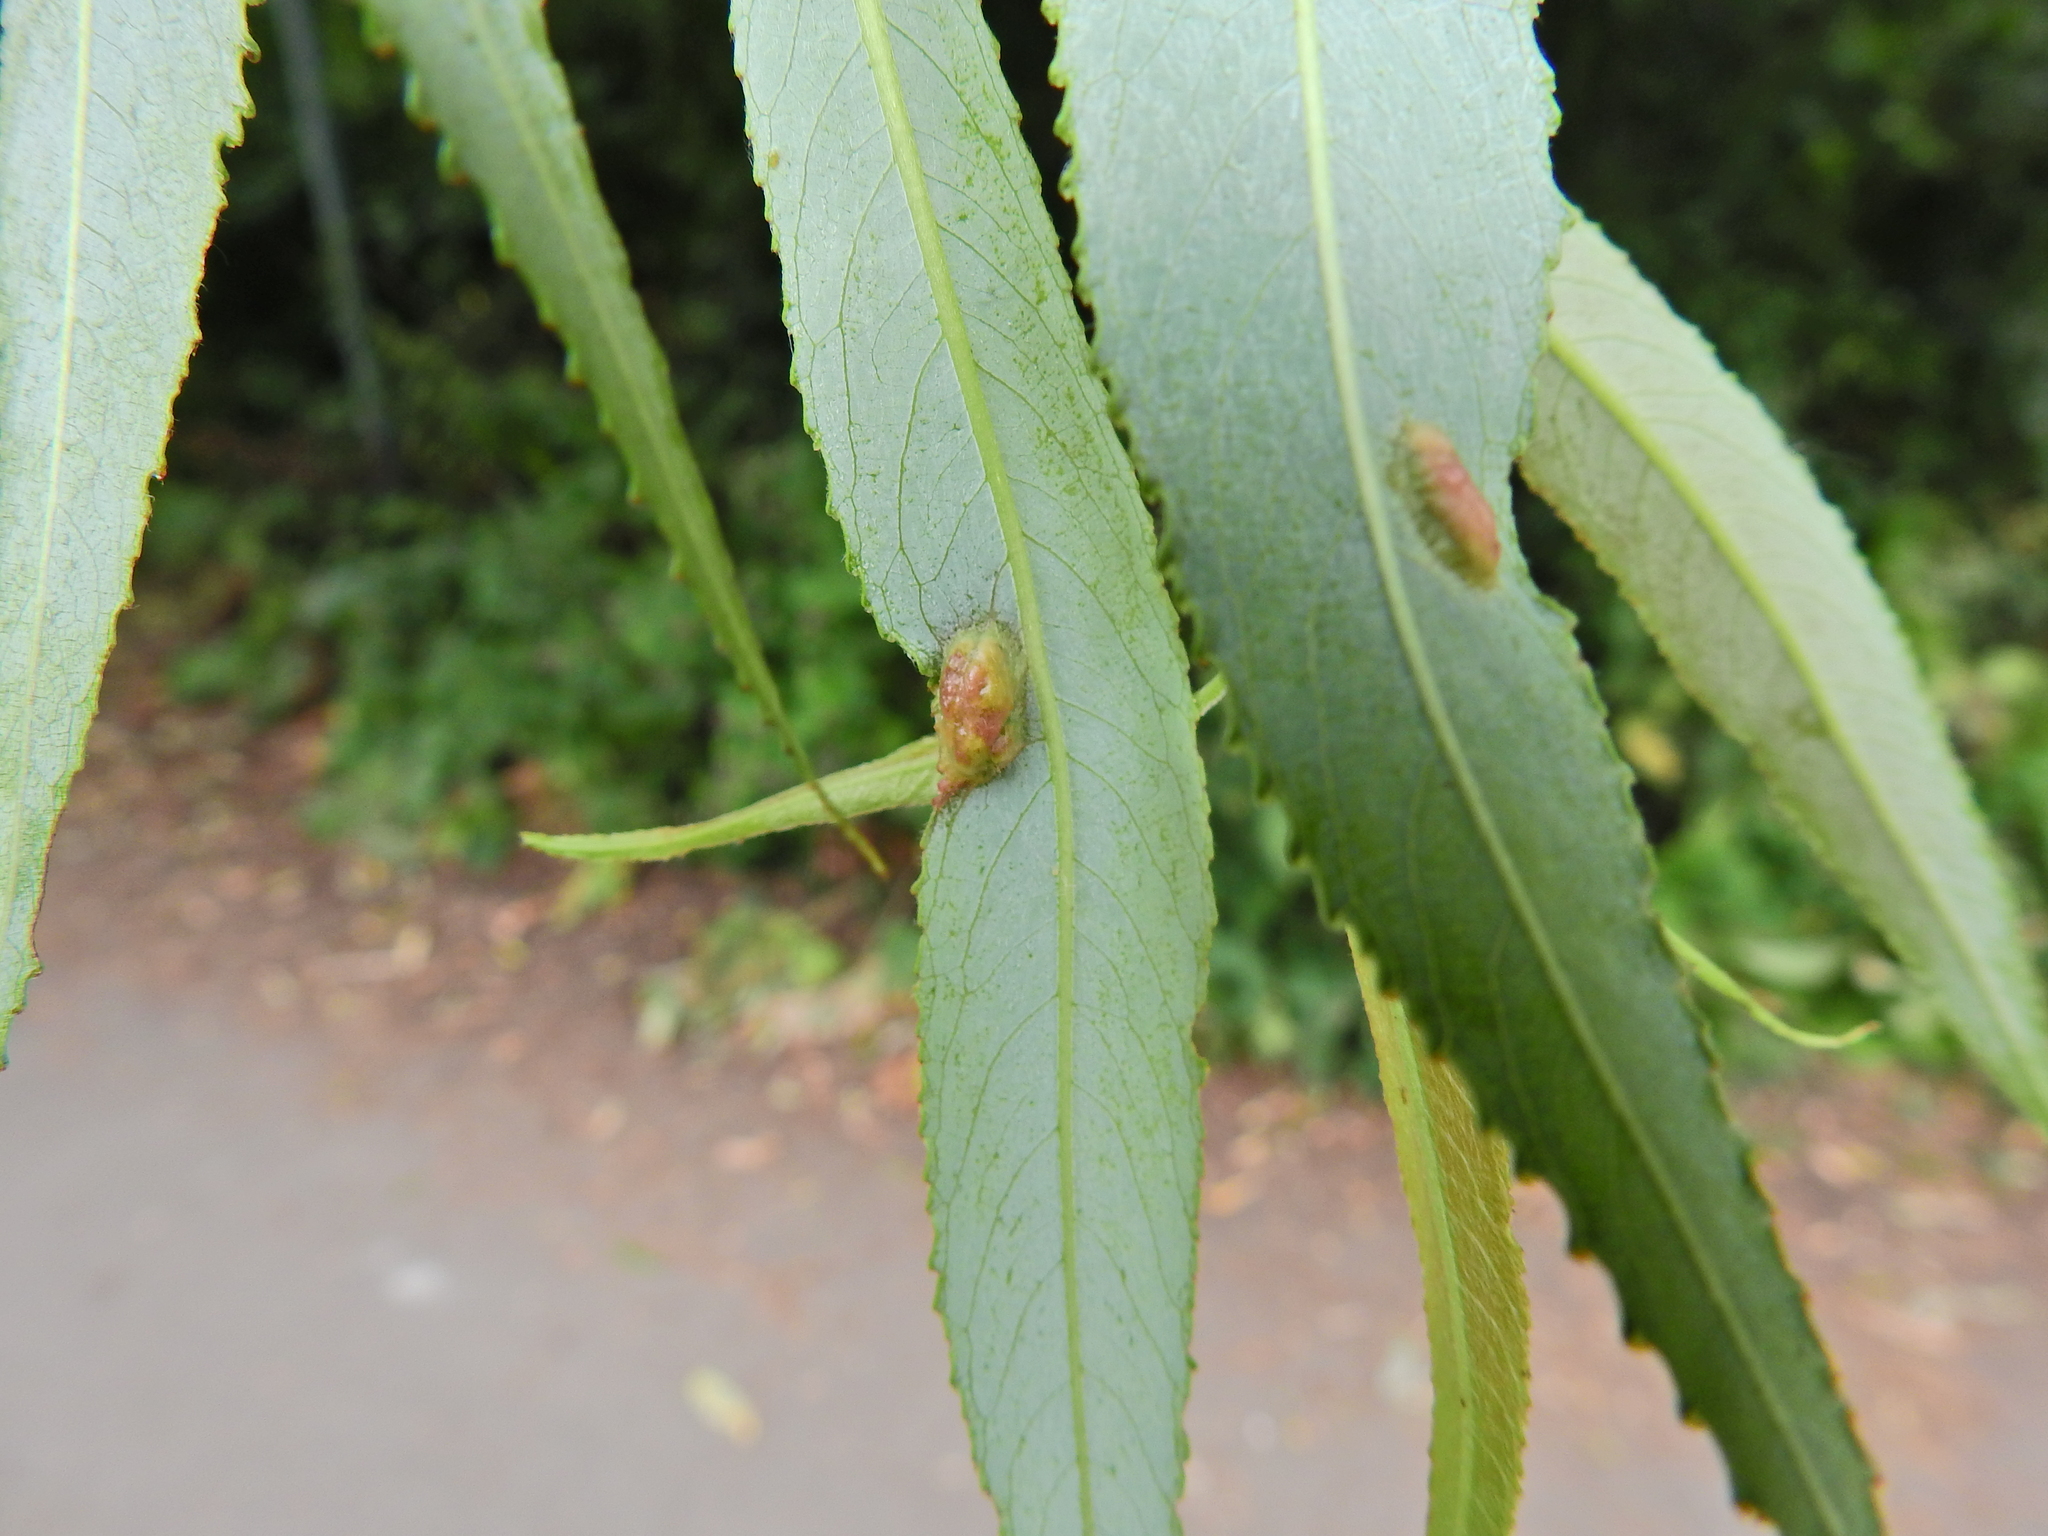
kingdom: Animalia
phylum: Arthropoda
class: Insecta
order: Hymenoptera
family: Tenthredinidae
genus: Pontania
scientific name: Pontania proxima
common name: Common sawfly
